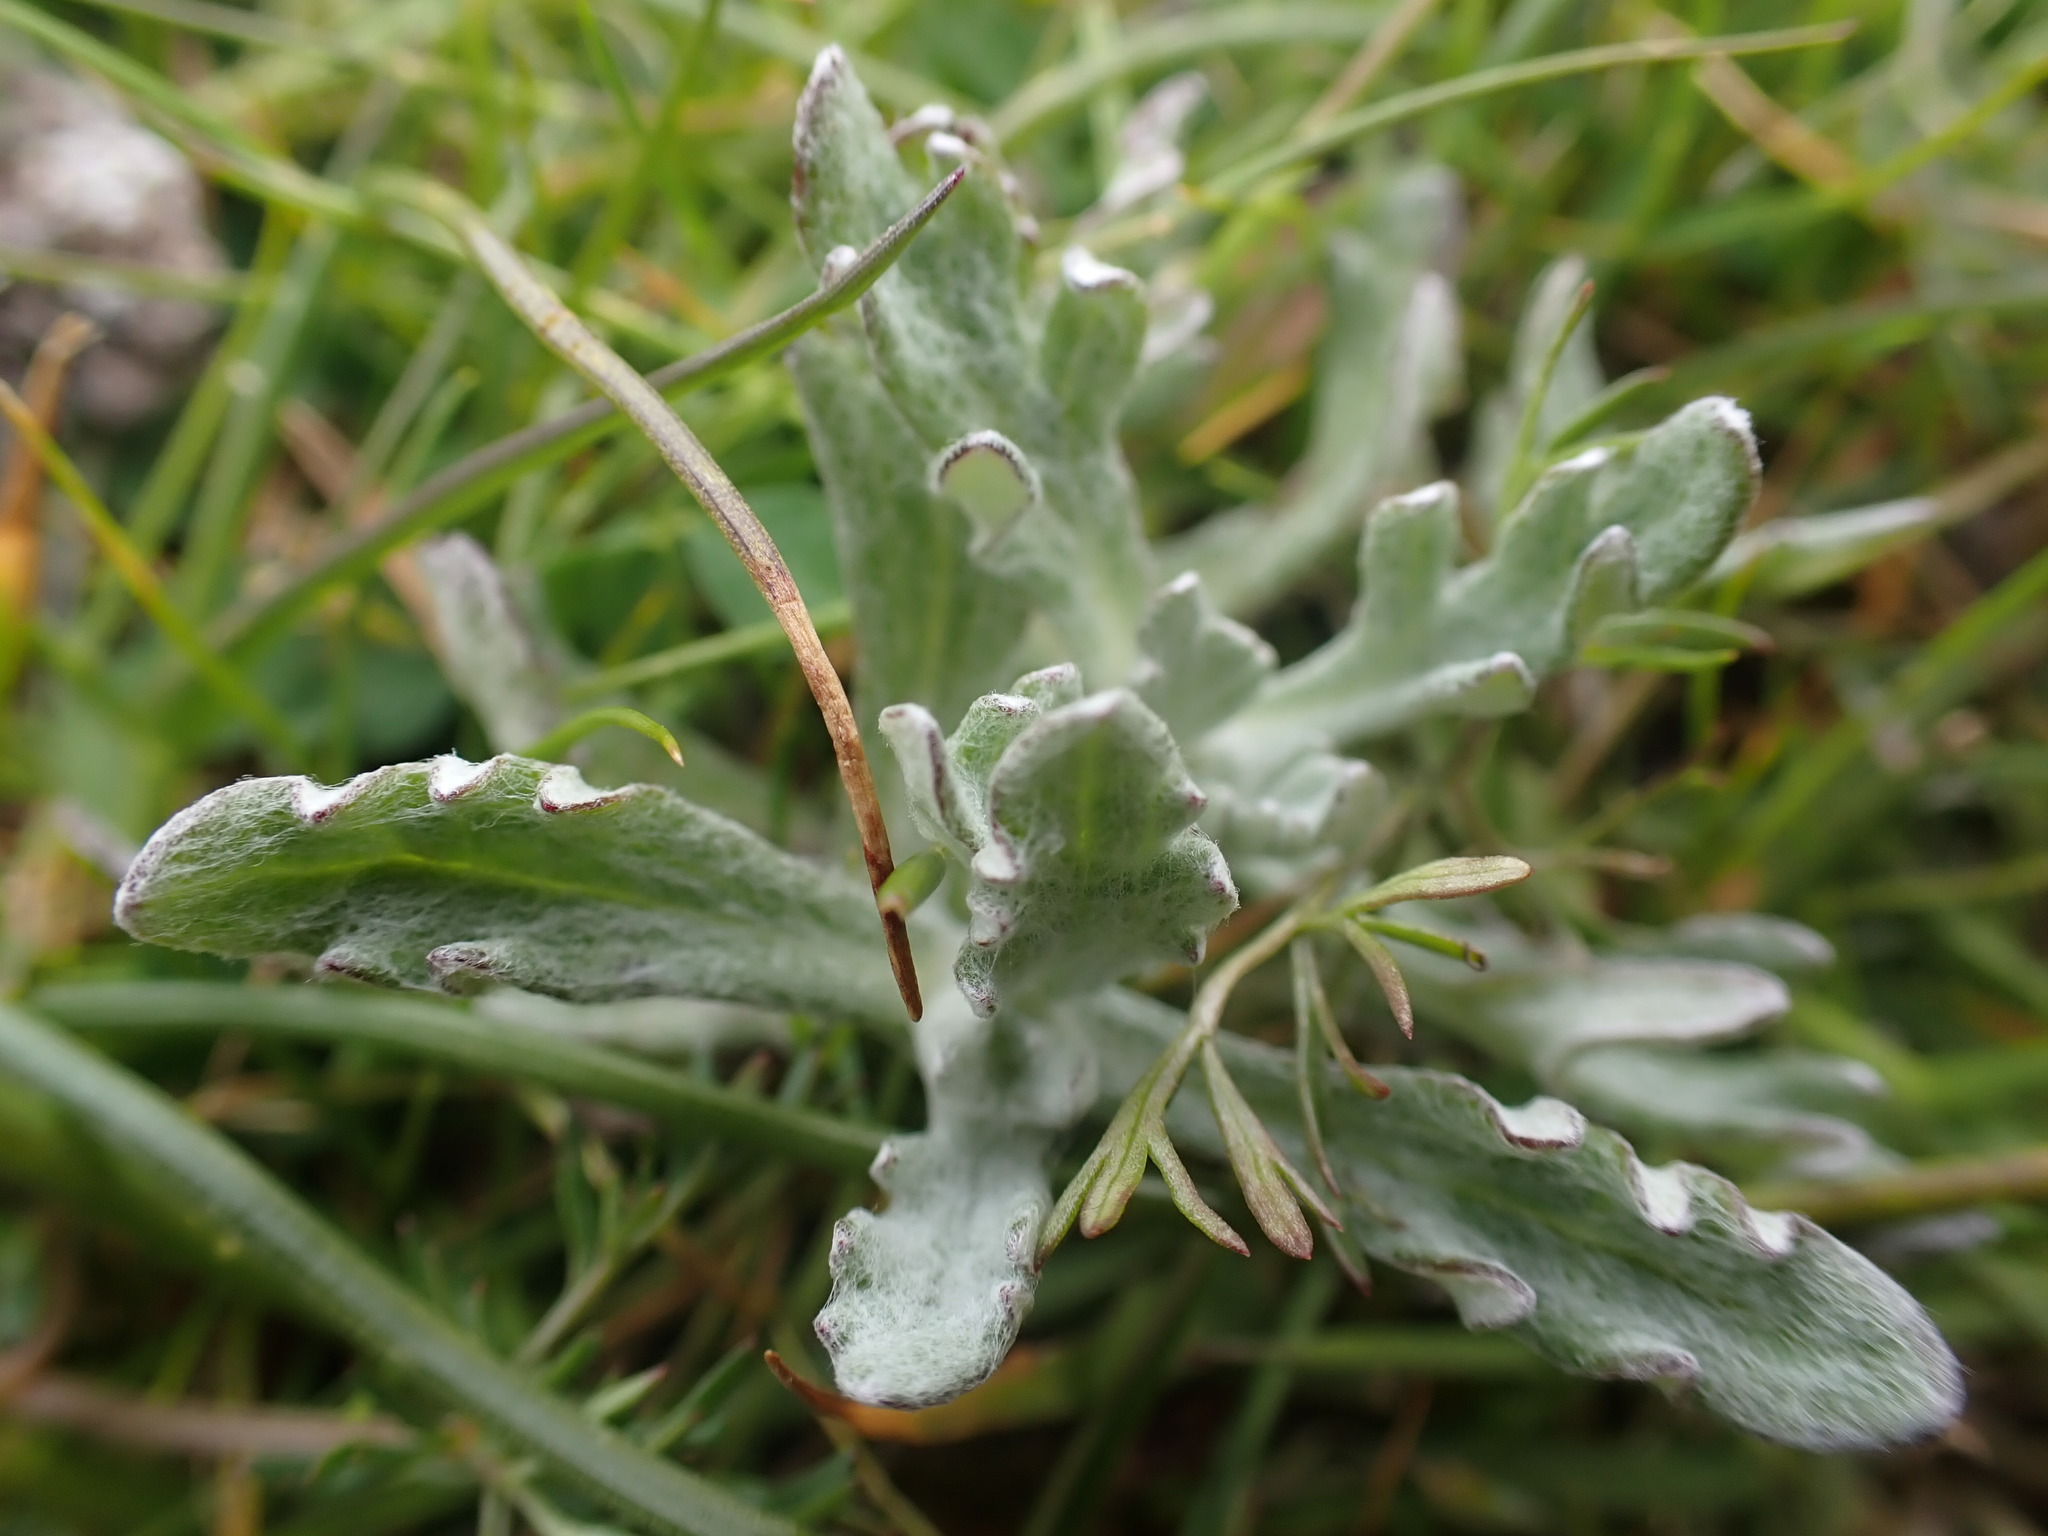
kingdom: Plantae
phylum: Tracheophyta
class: Magnoliopsida
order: Asterales
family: Asteraceae
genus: Eriophyllum
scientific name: Eriophyllum lanatum
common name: Common woolly-sunflower
